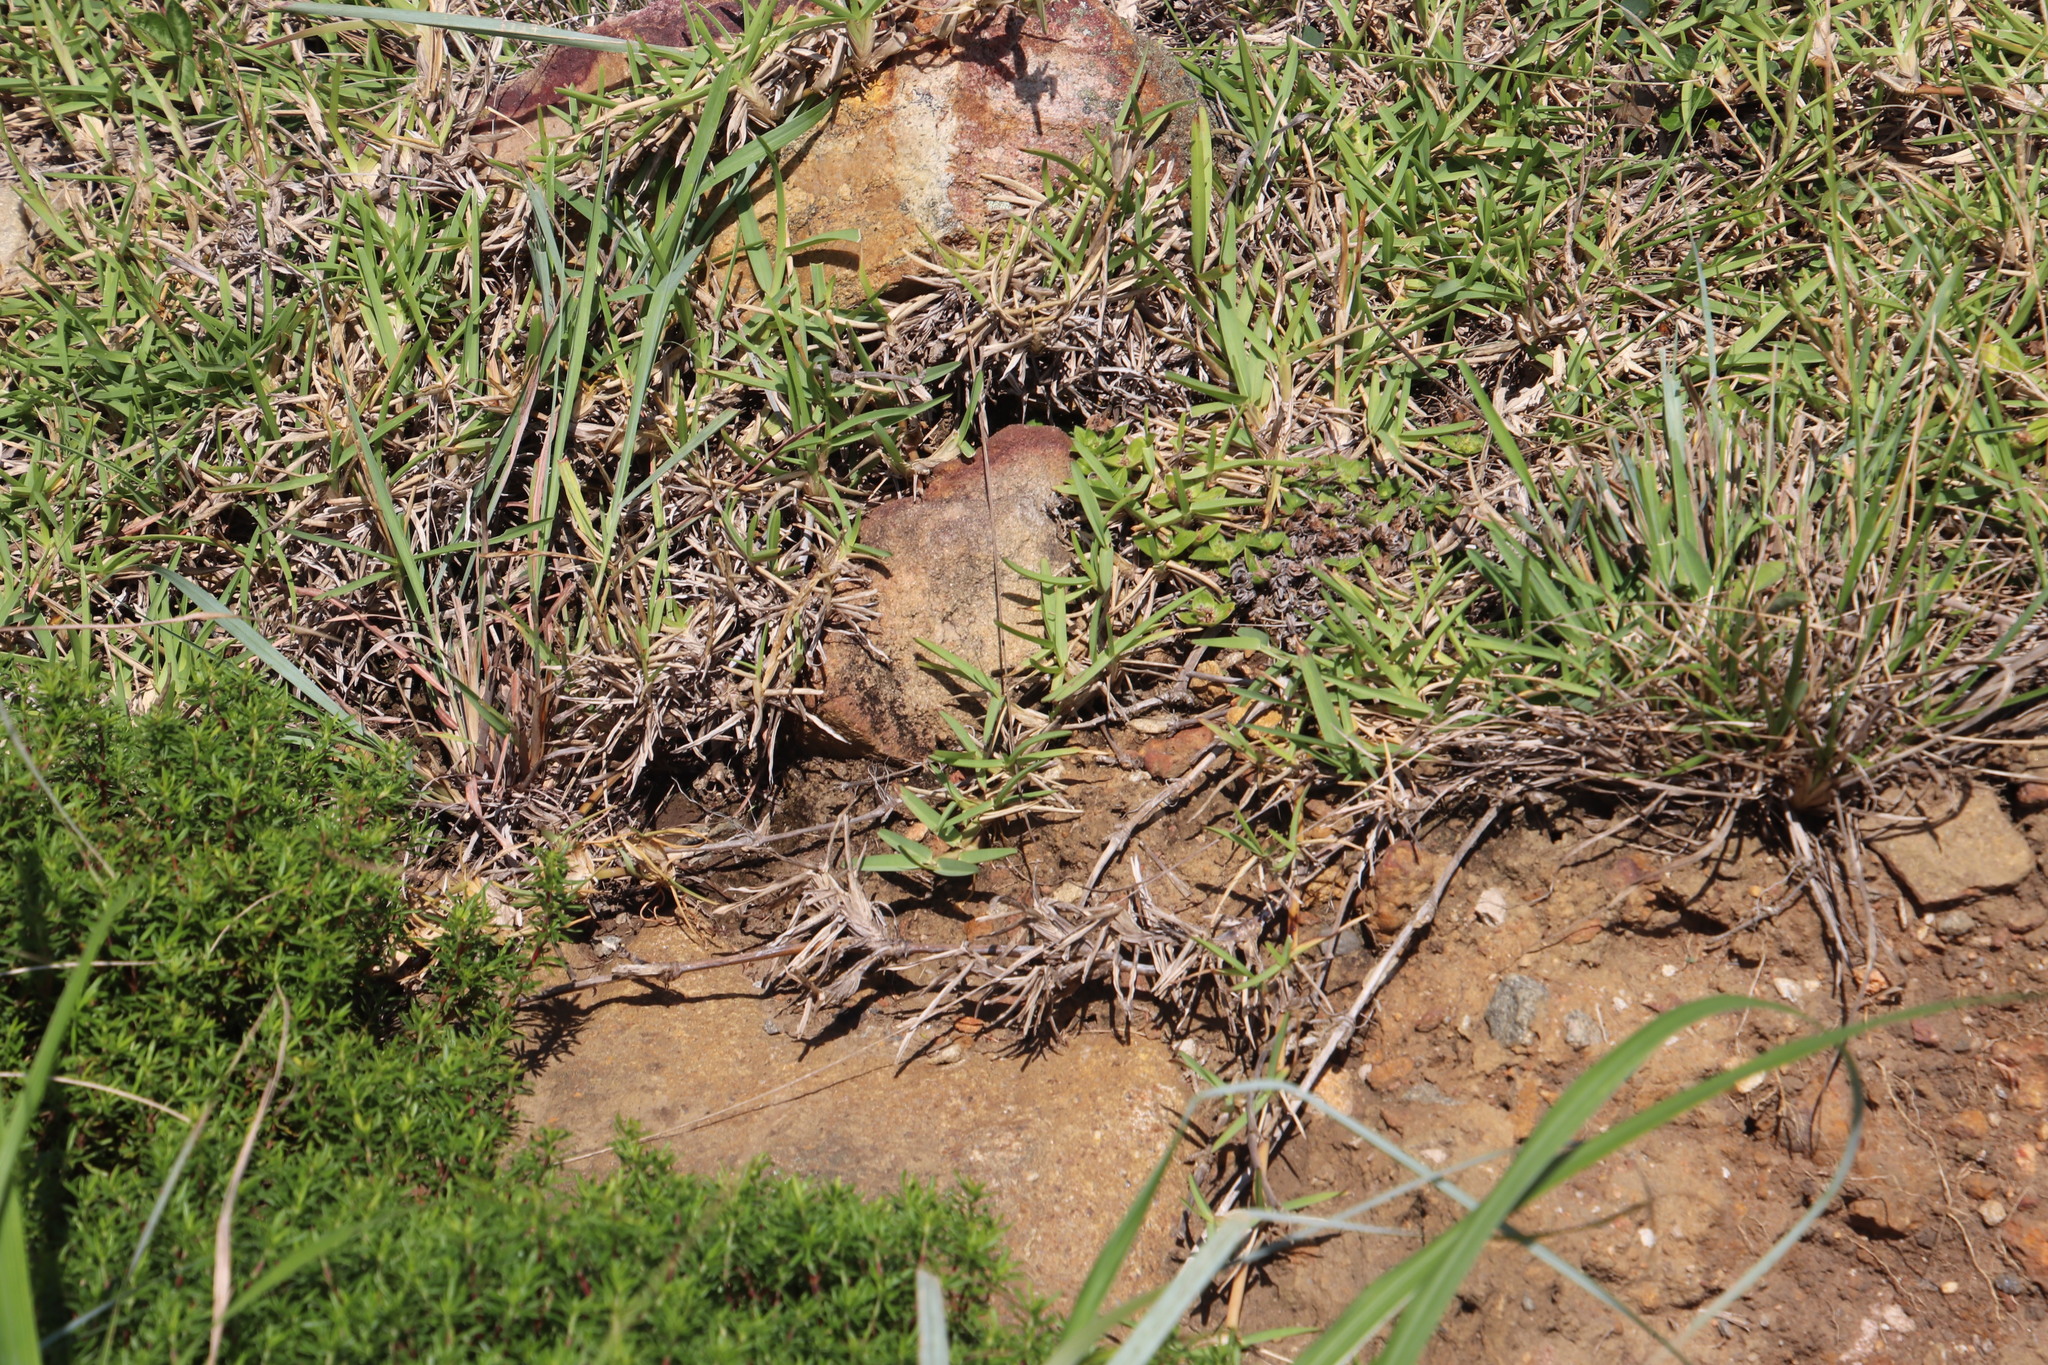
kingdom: Plantae
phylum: Tracheophyta
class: Liliopsida
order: Poales
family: Poaceae
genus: Stenotaphrum
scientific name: Stenotaphrum secundatum
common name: St. augustine grass
